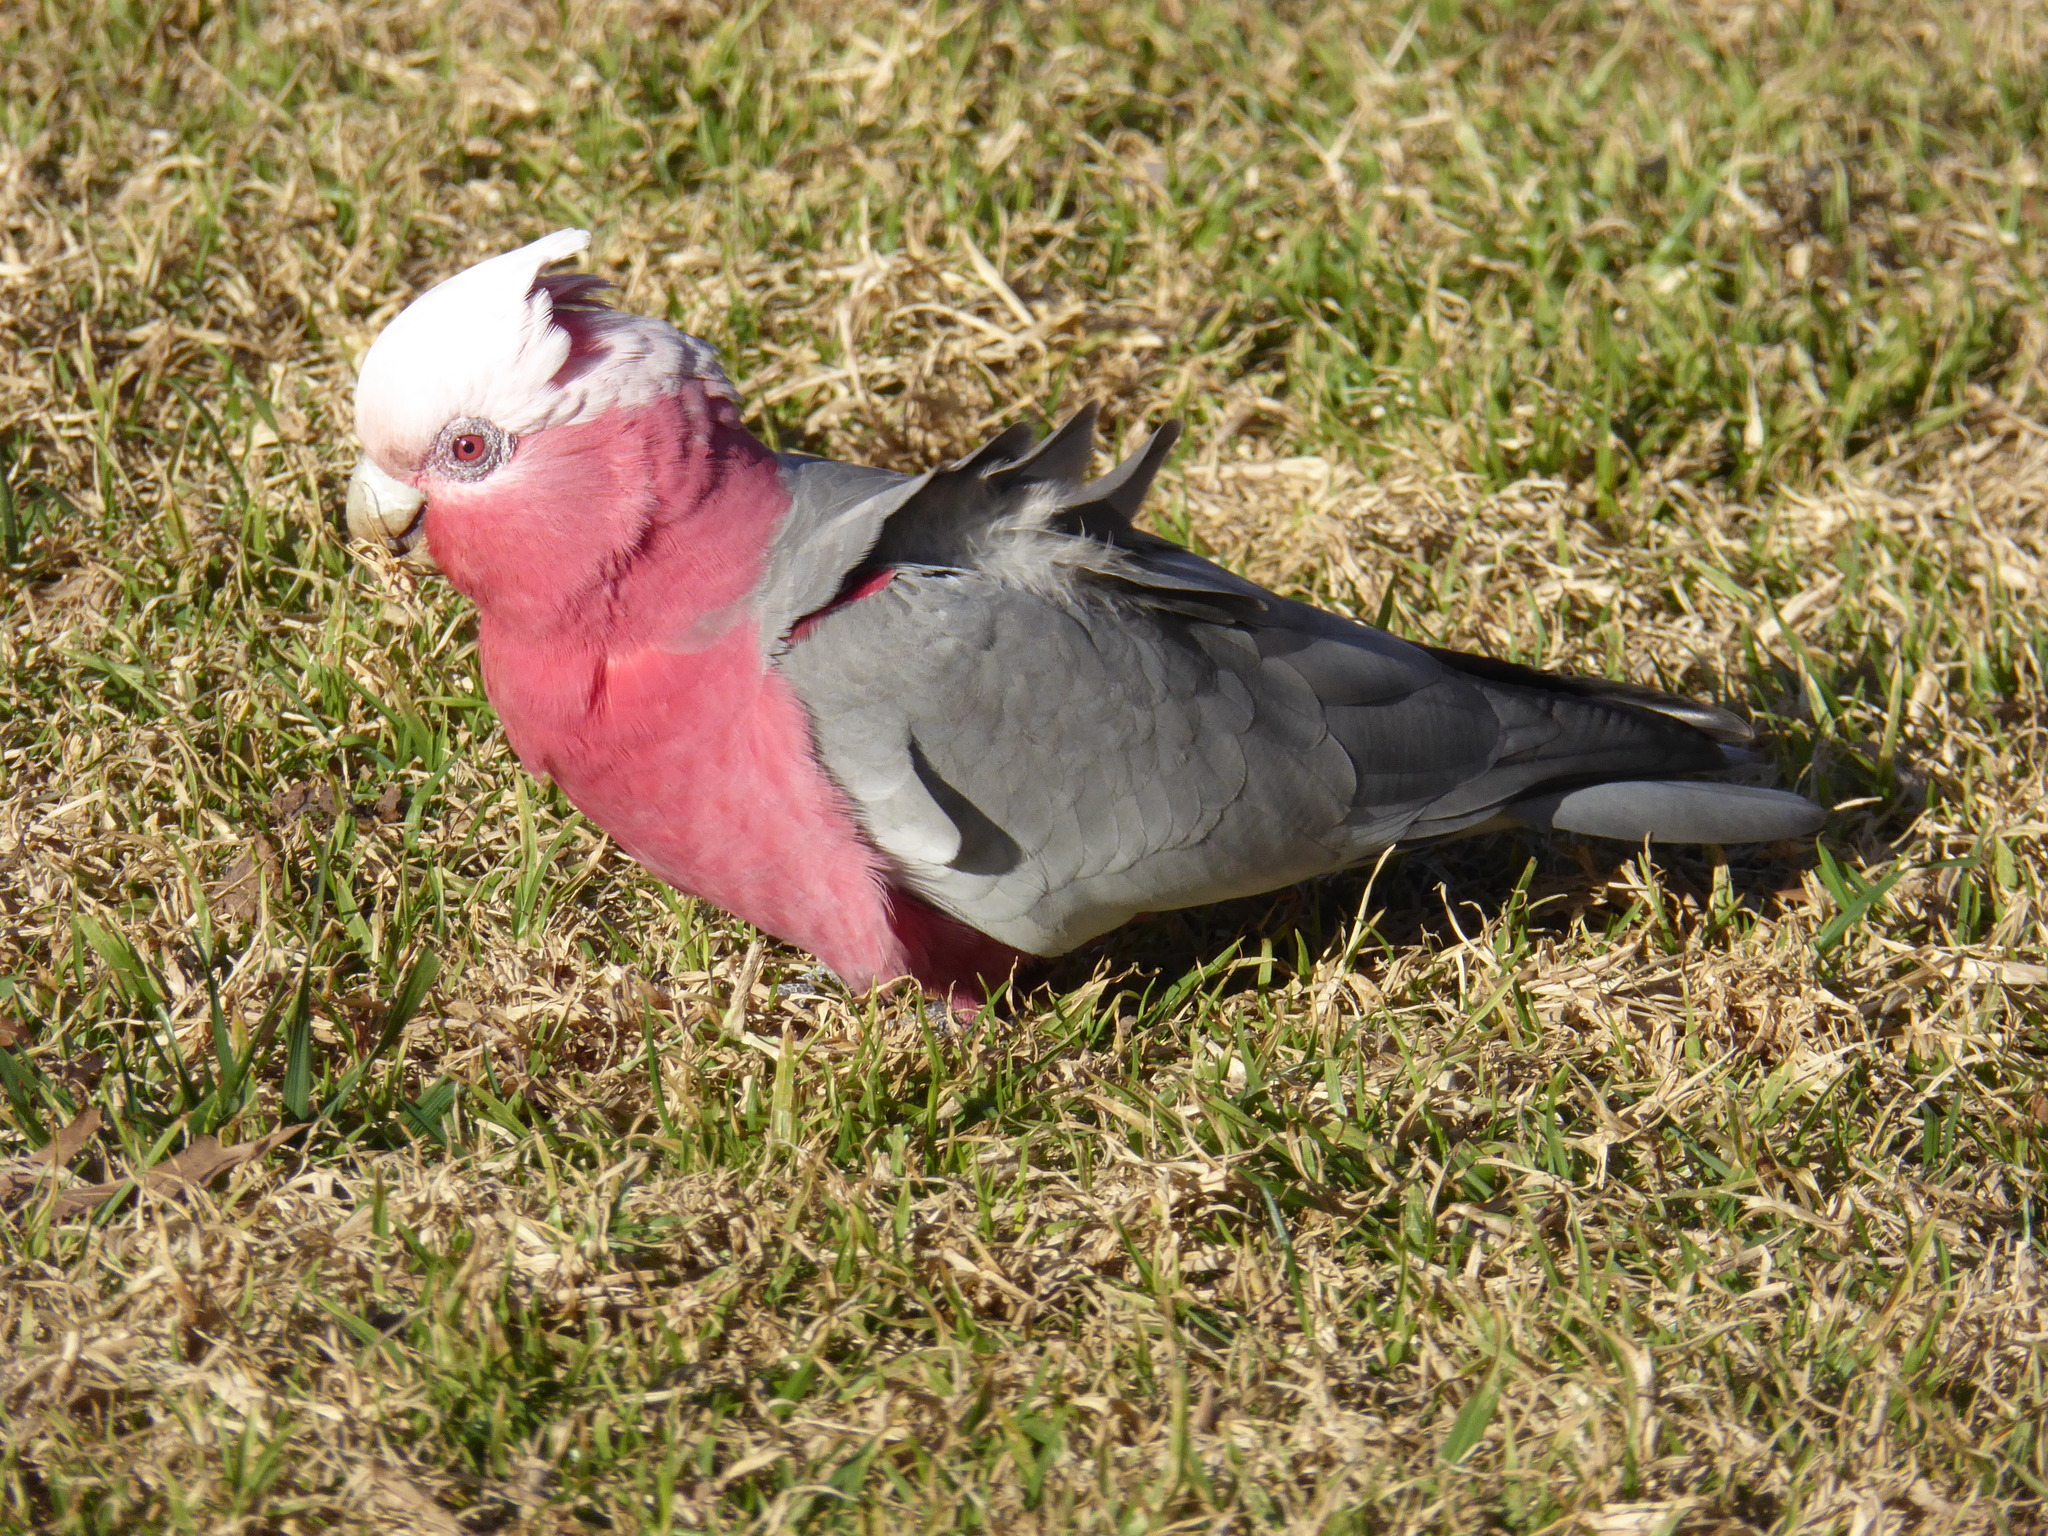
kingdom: Animalia
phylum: Chordata
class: Aves
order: Psittaciformes
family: Psittacidae
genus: Eolophus
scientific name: Eolophus roseicapilla
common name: Galah
